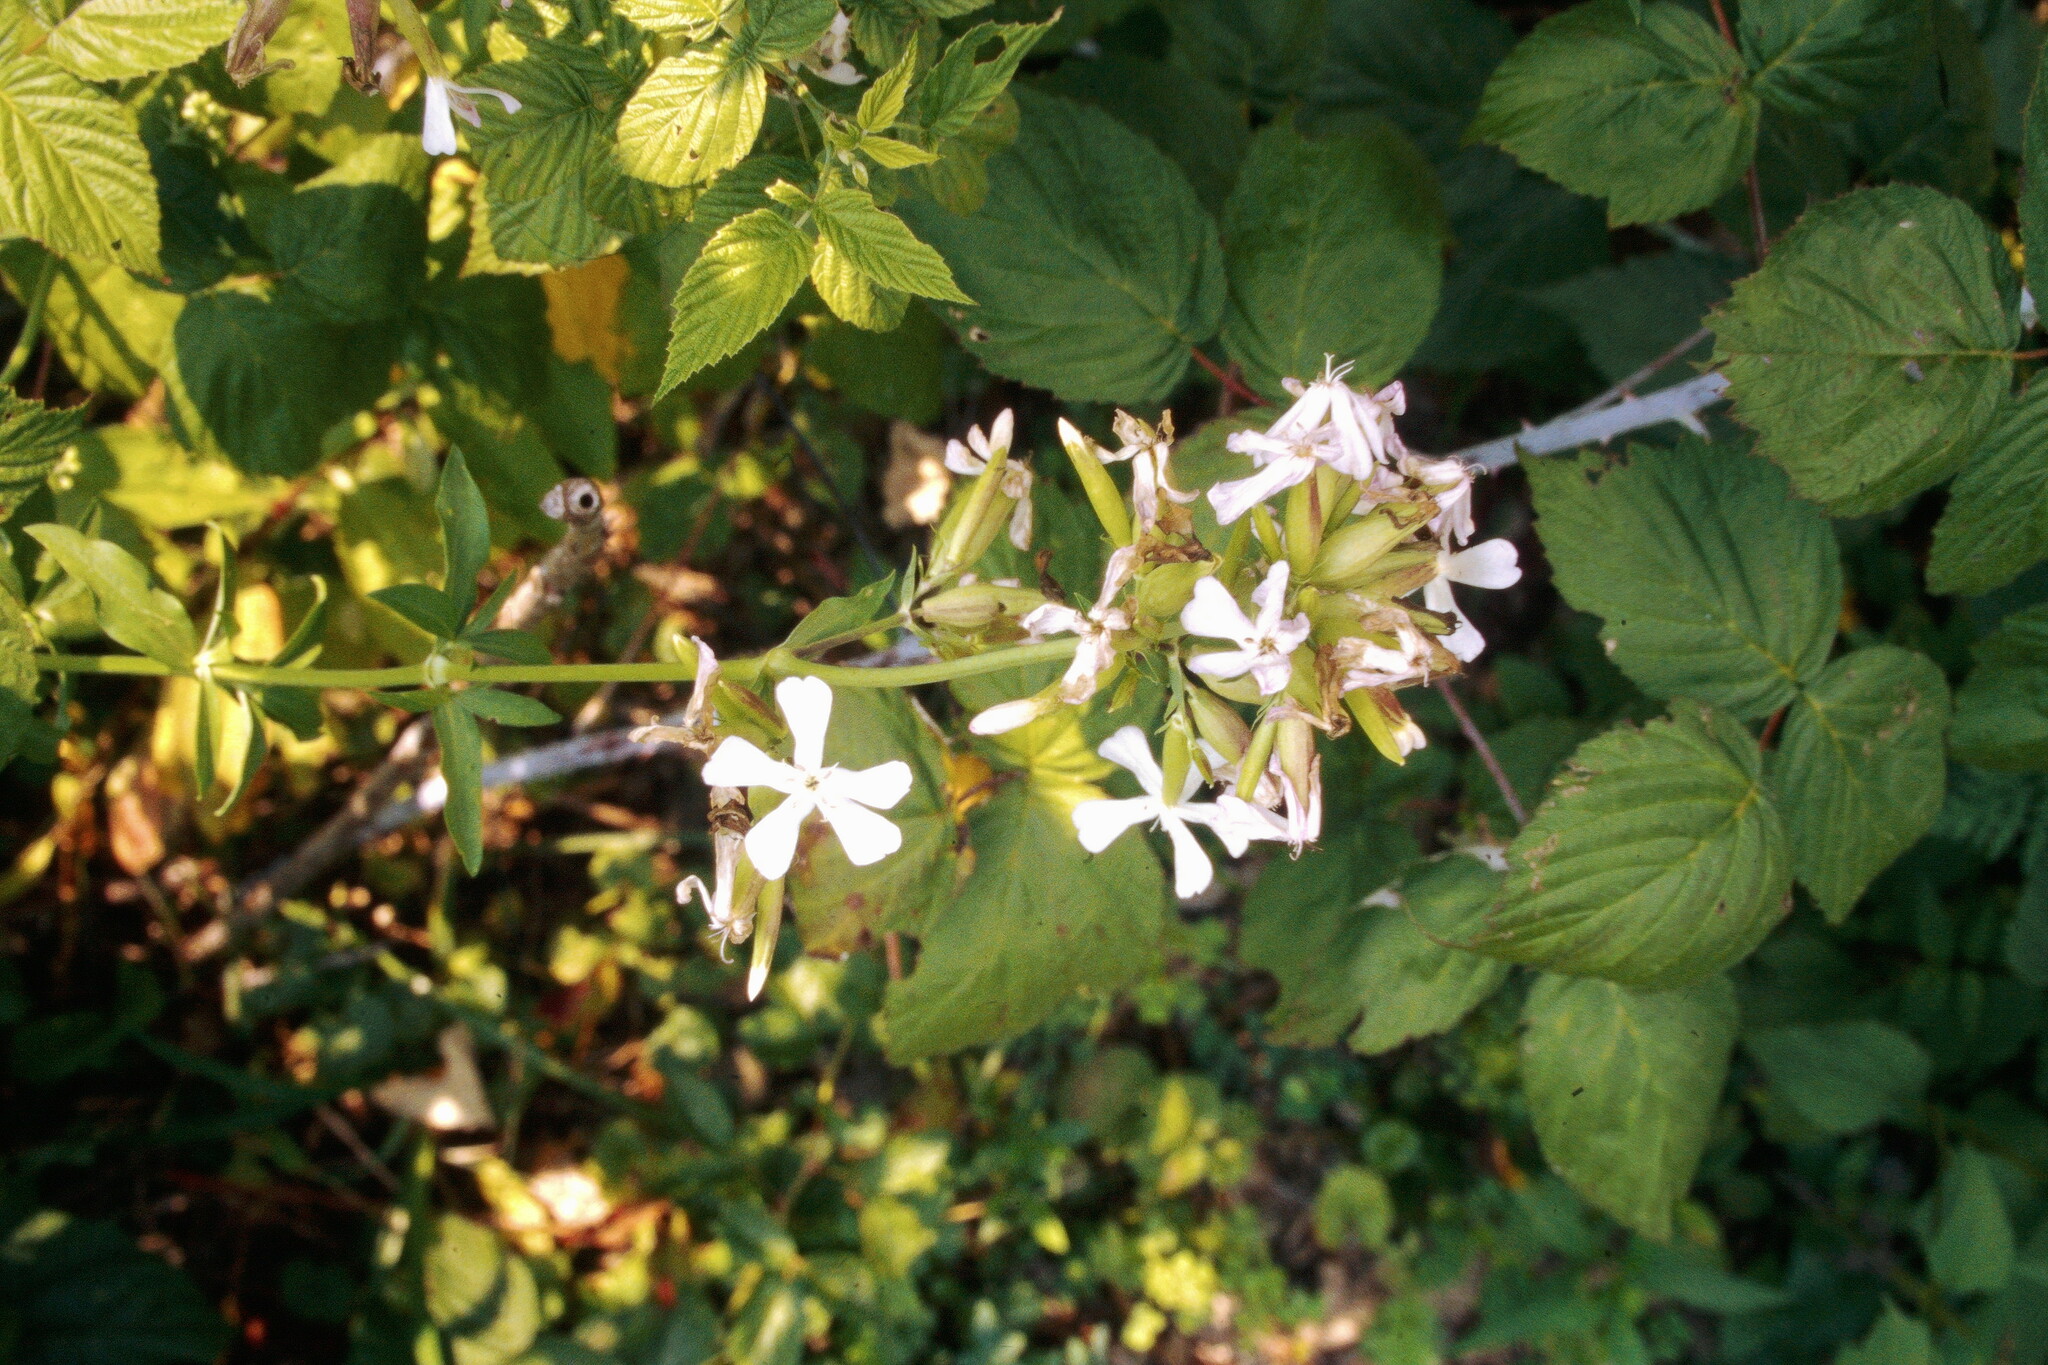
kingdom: Plantae
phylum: Tracheophyta
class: Magnoliopsida
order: Caryophyllales
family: Caryophyllaceae
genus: Saponaria
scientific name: Saponaria officinalis
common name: Soapwort
